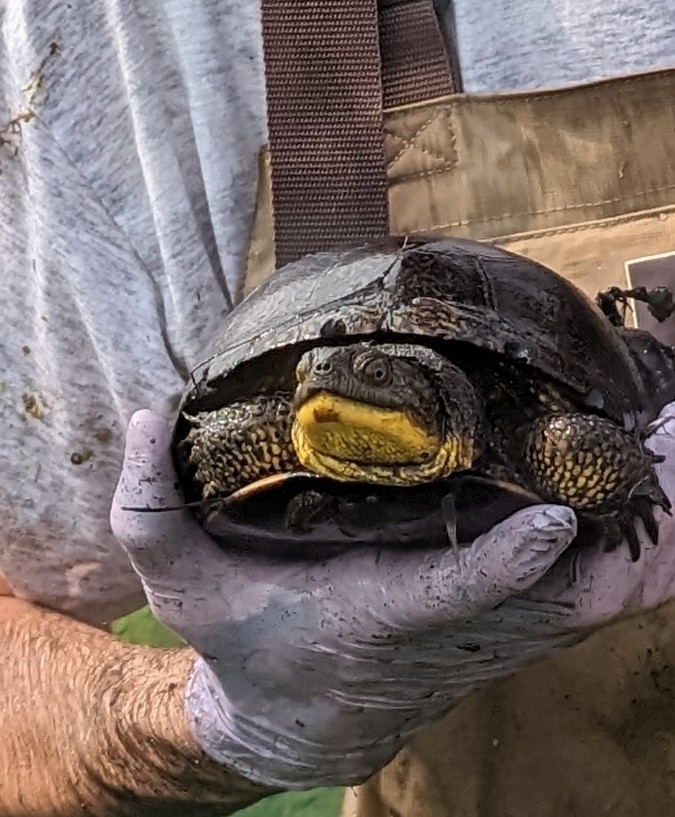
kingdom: Animalia
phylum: Chordata
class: Testudines
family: Emydidae
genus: Emys
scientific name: Emys blandingii
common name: Blanding's turtle
